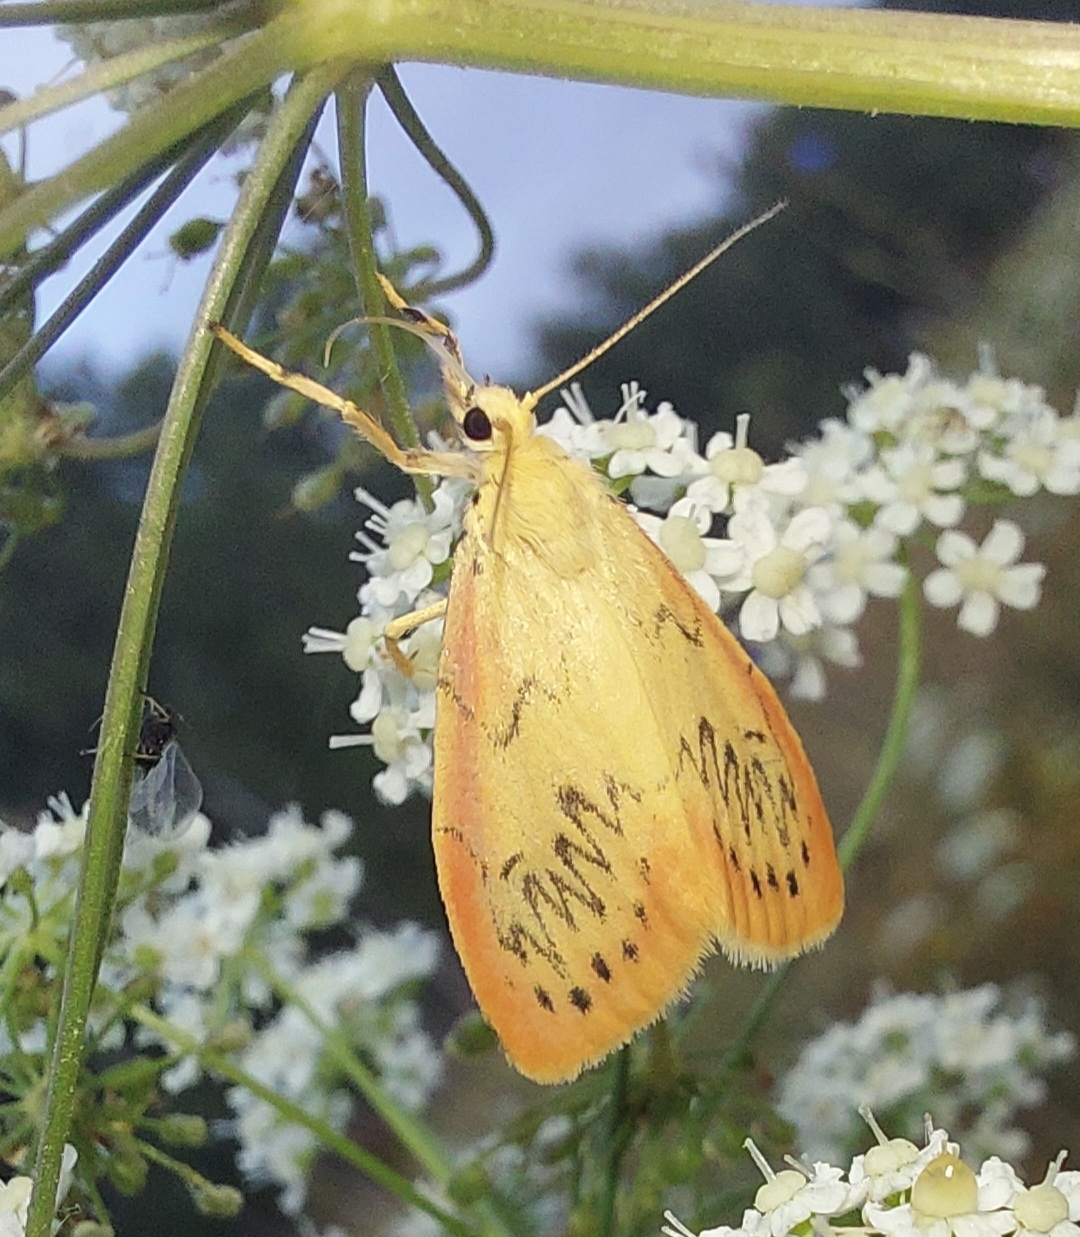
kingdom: Animalia
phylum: Arthropoda
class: Insecta
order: Lepidoptera
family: Erebidae
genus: Miltochrista
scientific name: Miltochrista miniata
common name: Rosy footman
